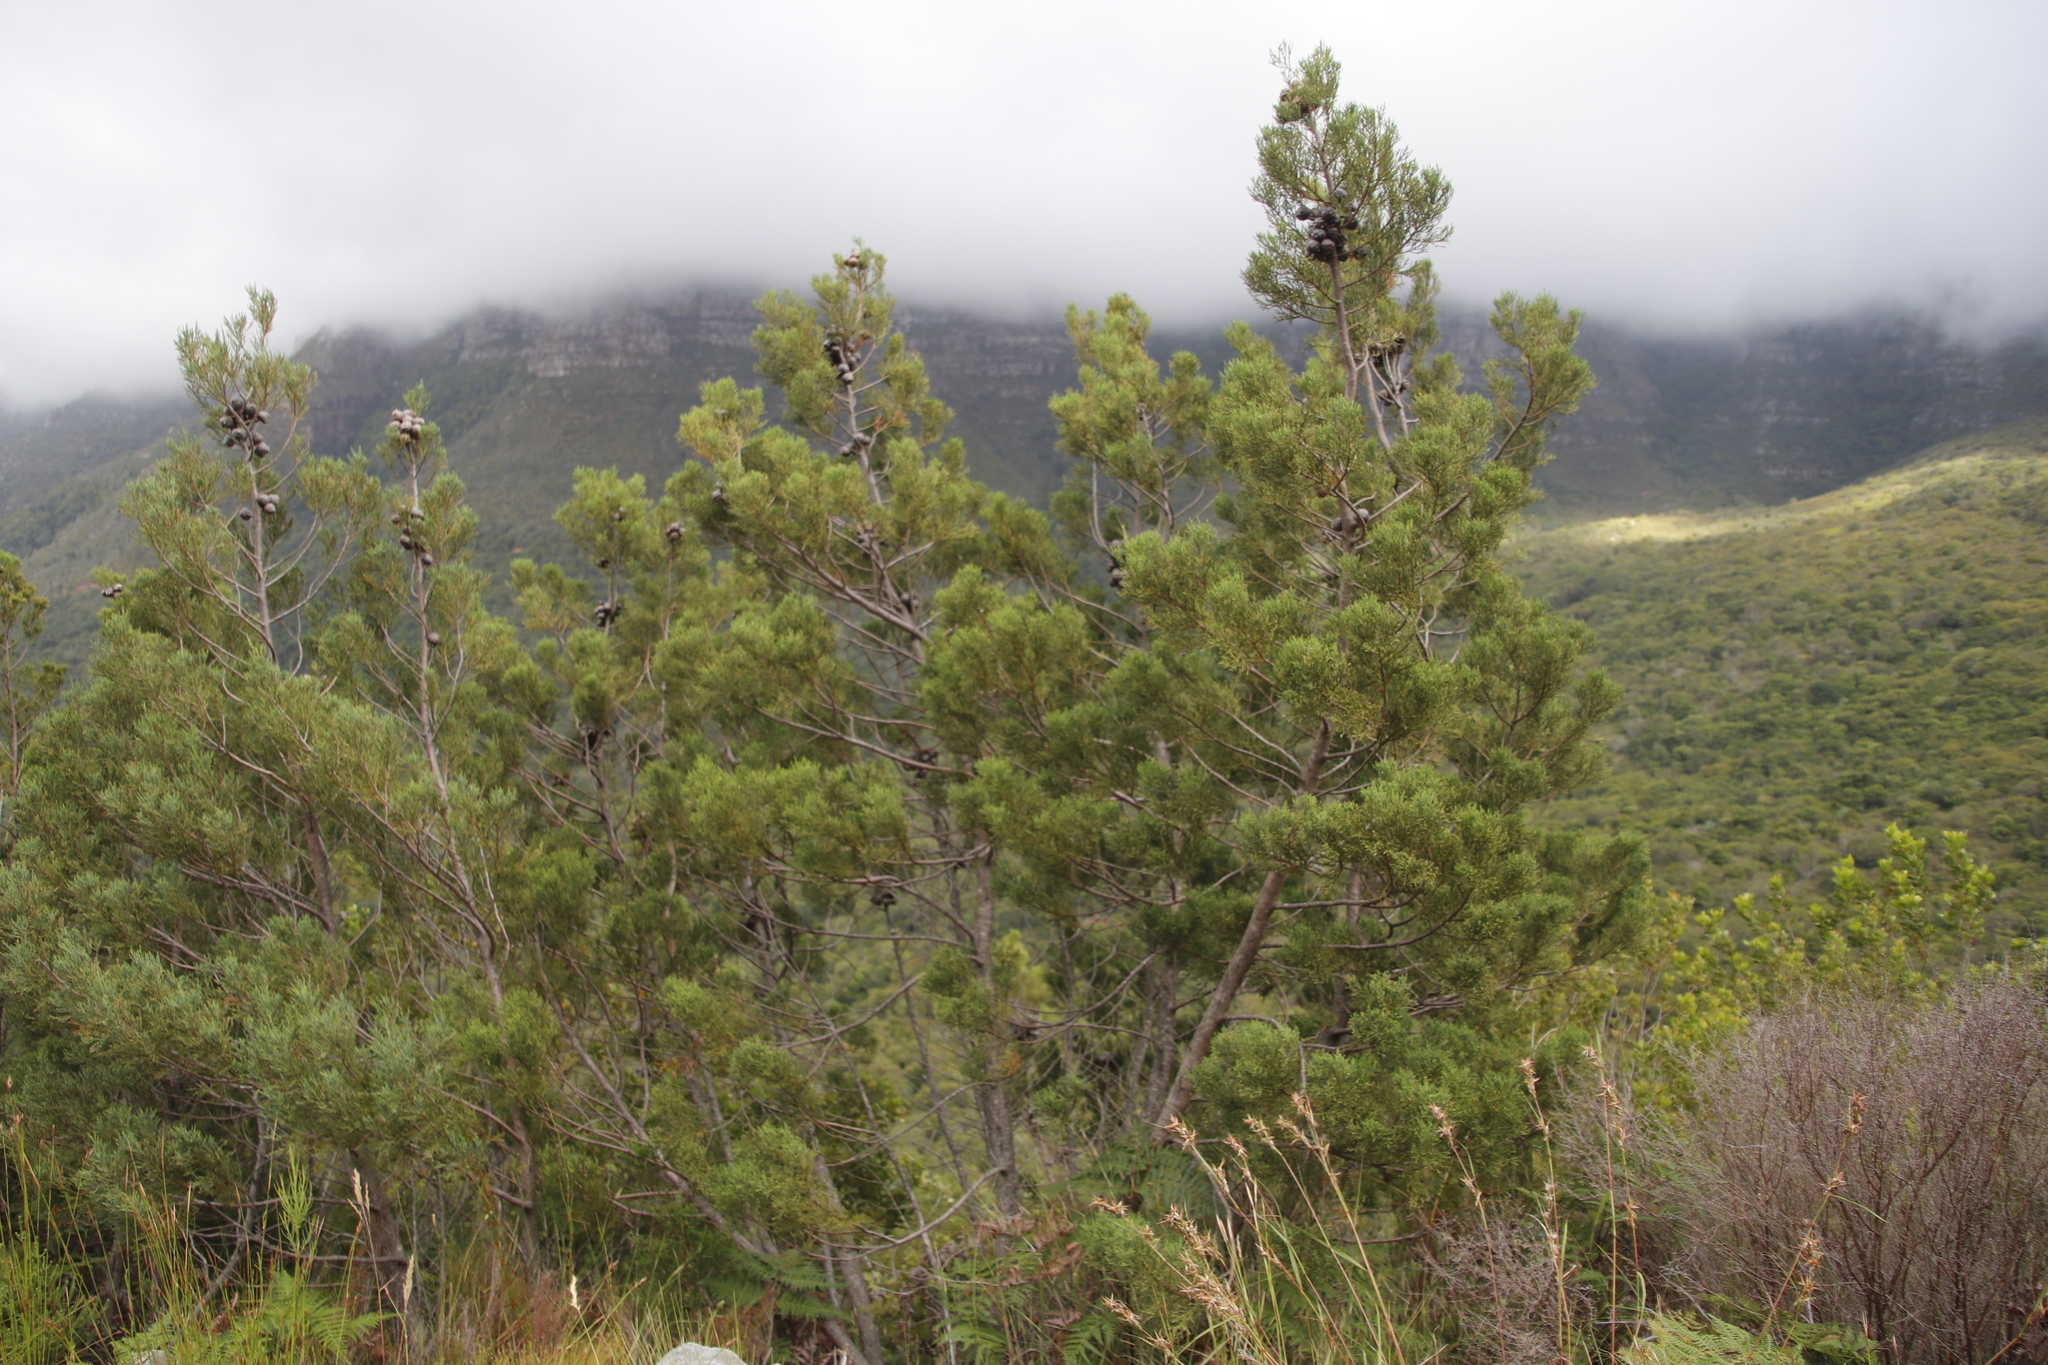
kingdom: Plantae
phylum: Tracheophyta
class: Pinopsida
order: Pinales
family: Cupressaceae
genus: Widdringtonia
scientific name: Widdringtonia nodiflora
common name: Cape cypress
